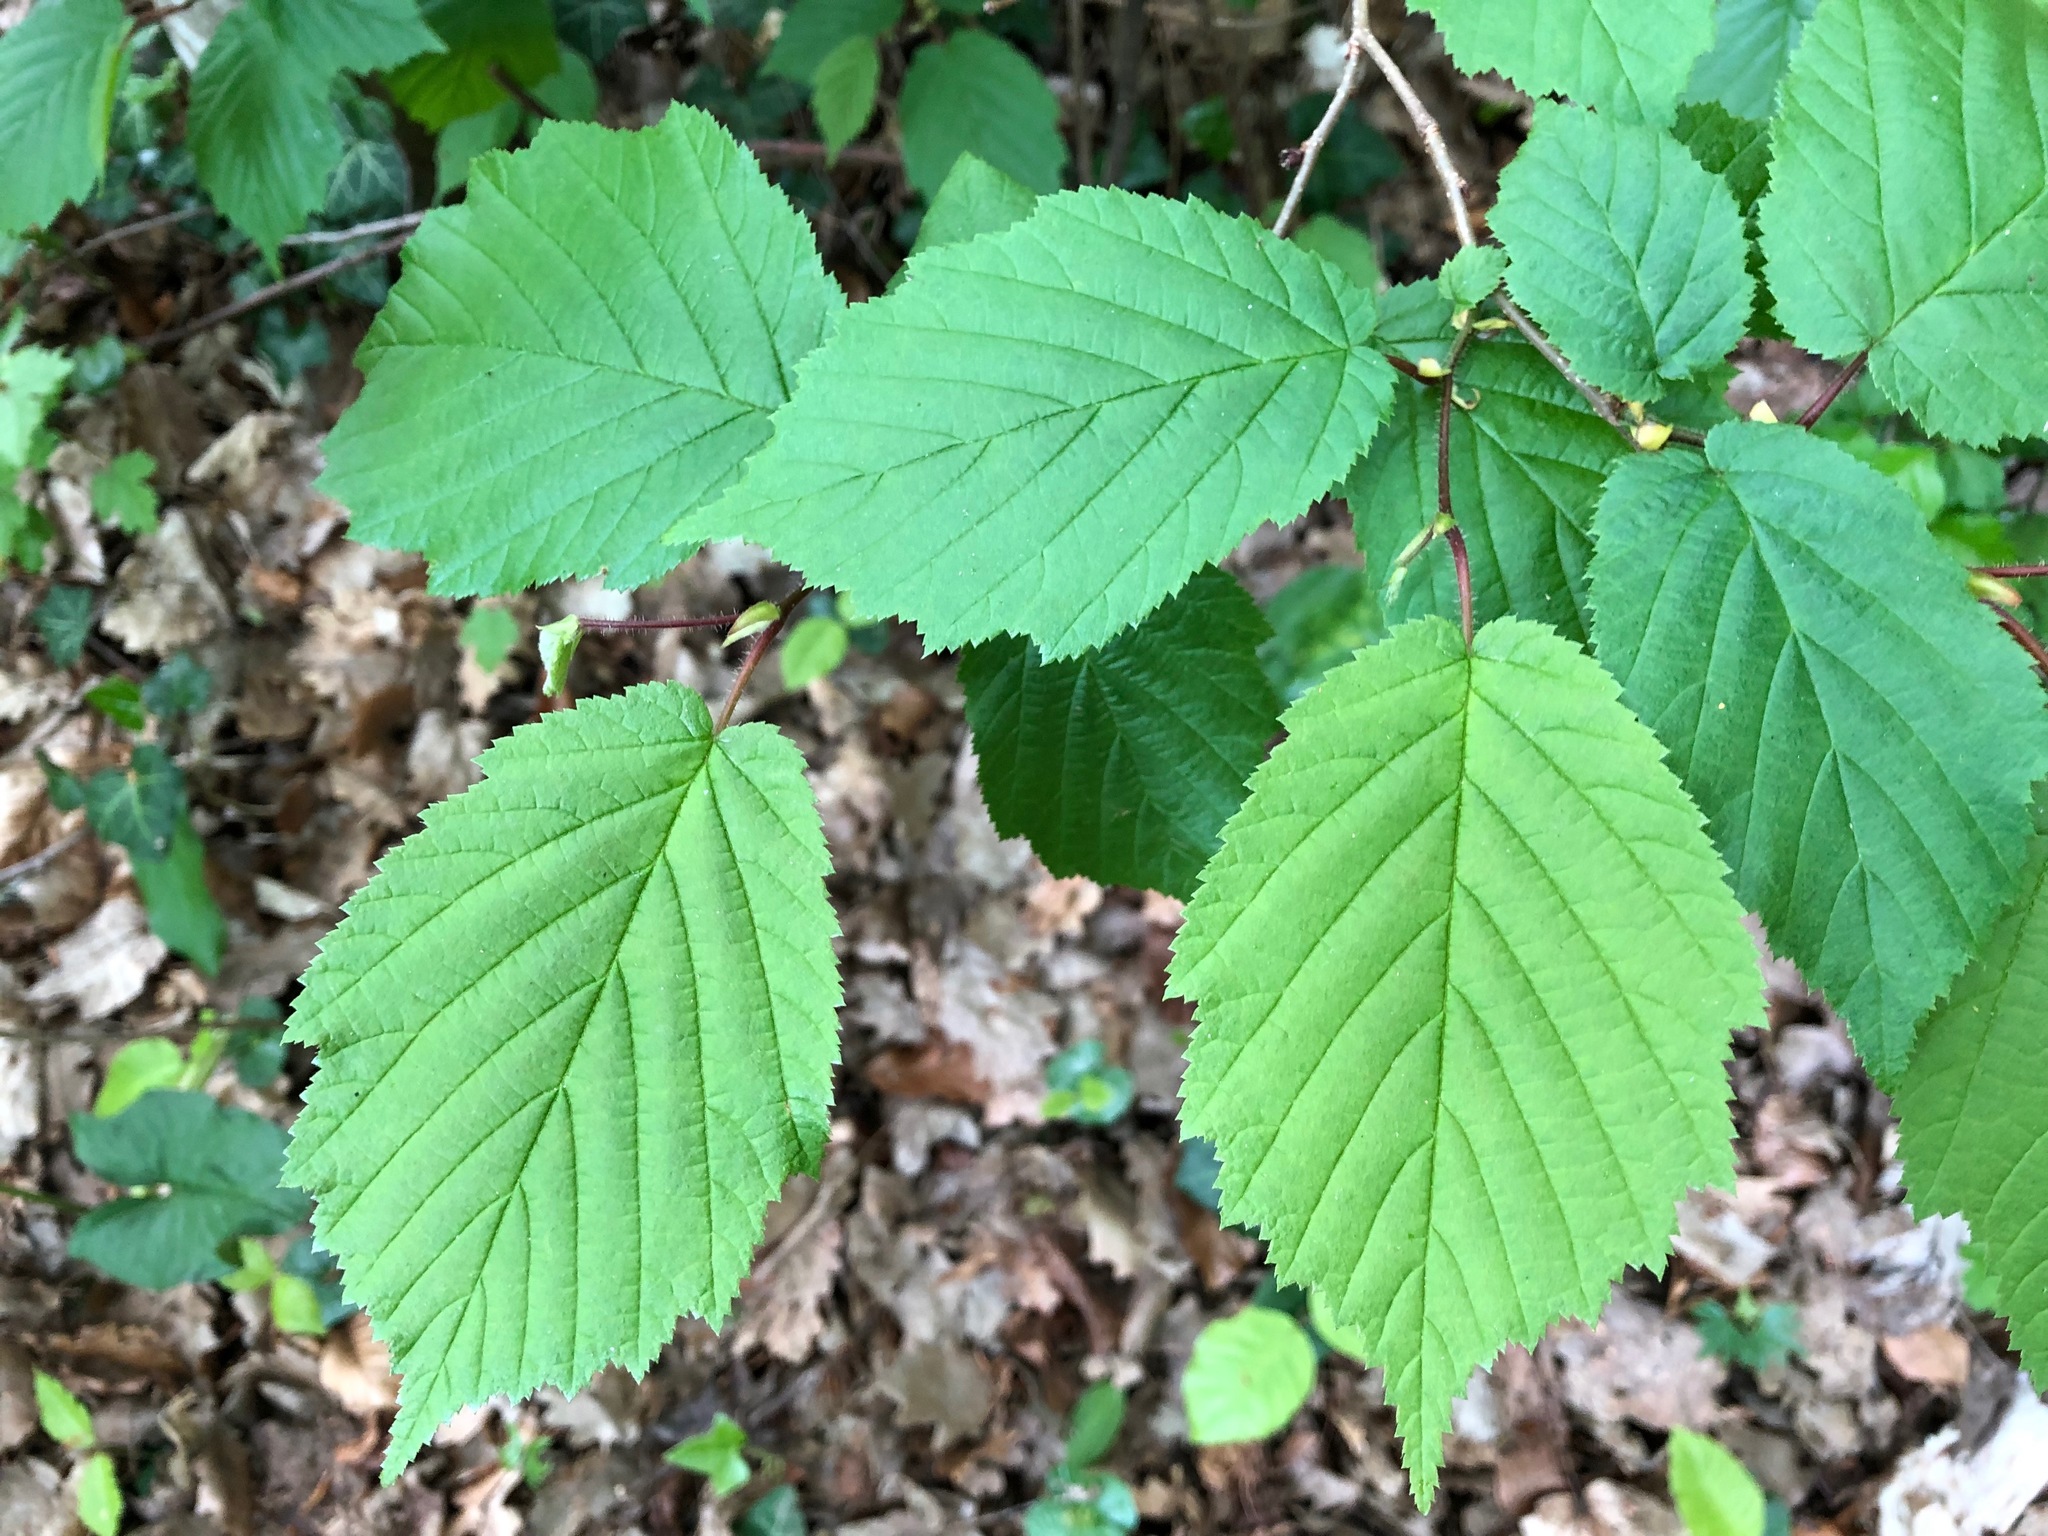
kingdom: Plantae
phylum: Tracheophyta
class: Magnoliopsida
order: Fagales
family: Betulaceae
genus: Corylus
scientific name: Corylus avellana
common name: European hazel
